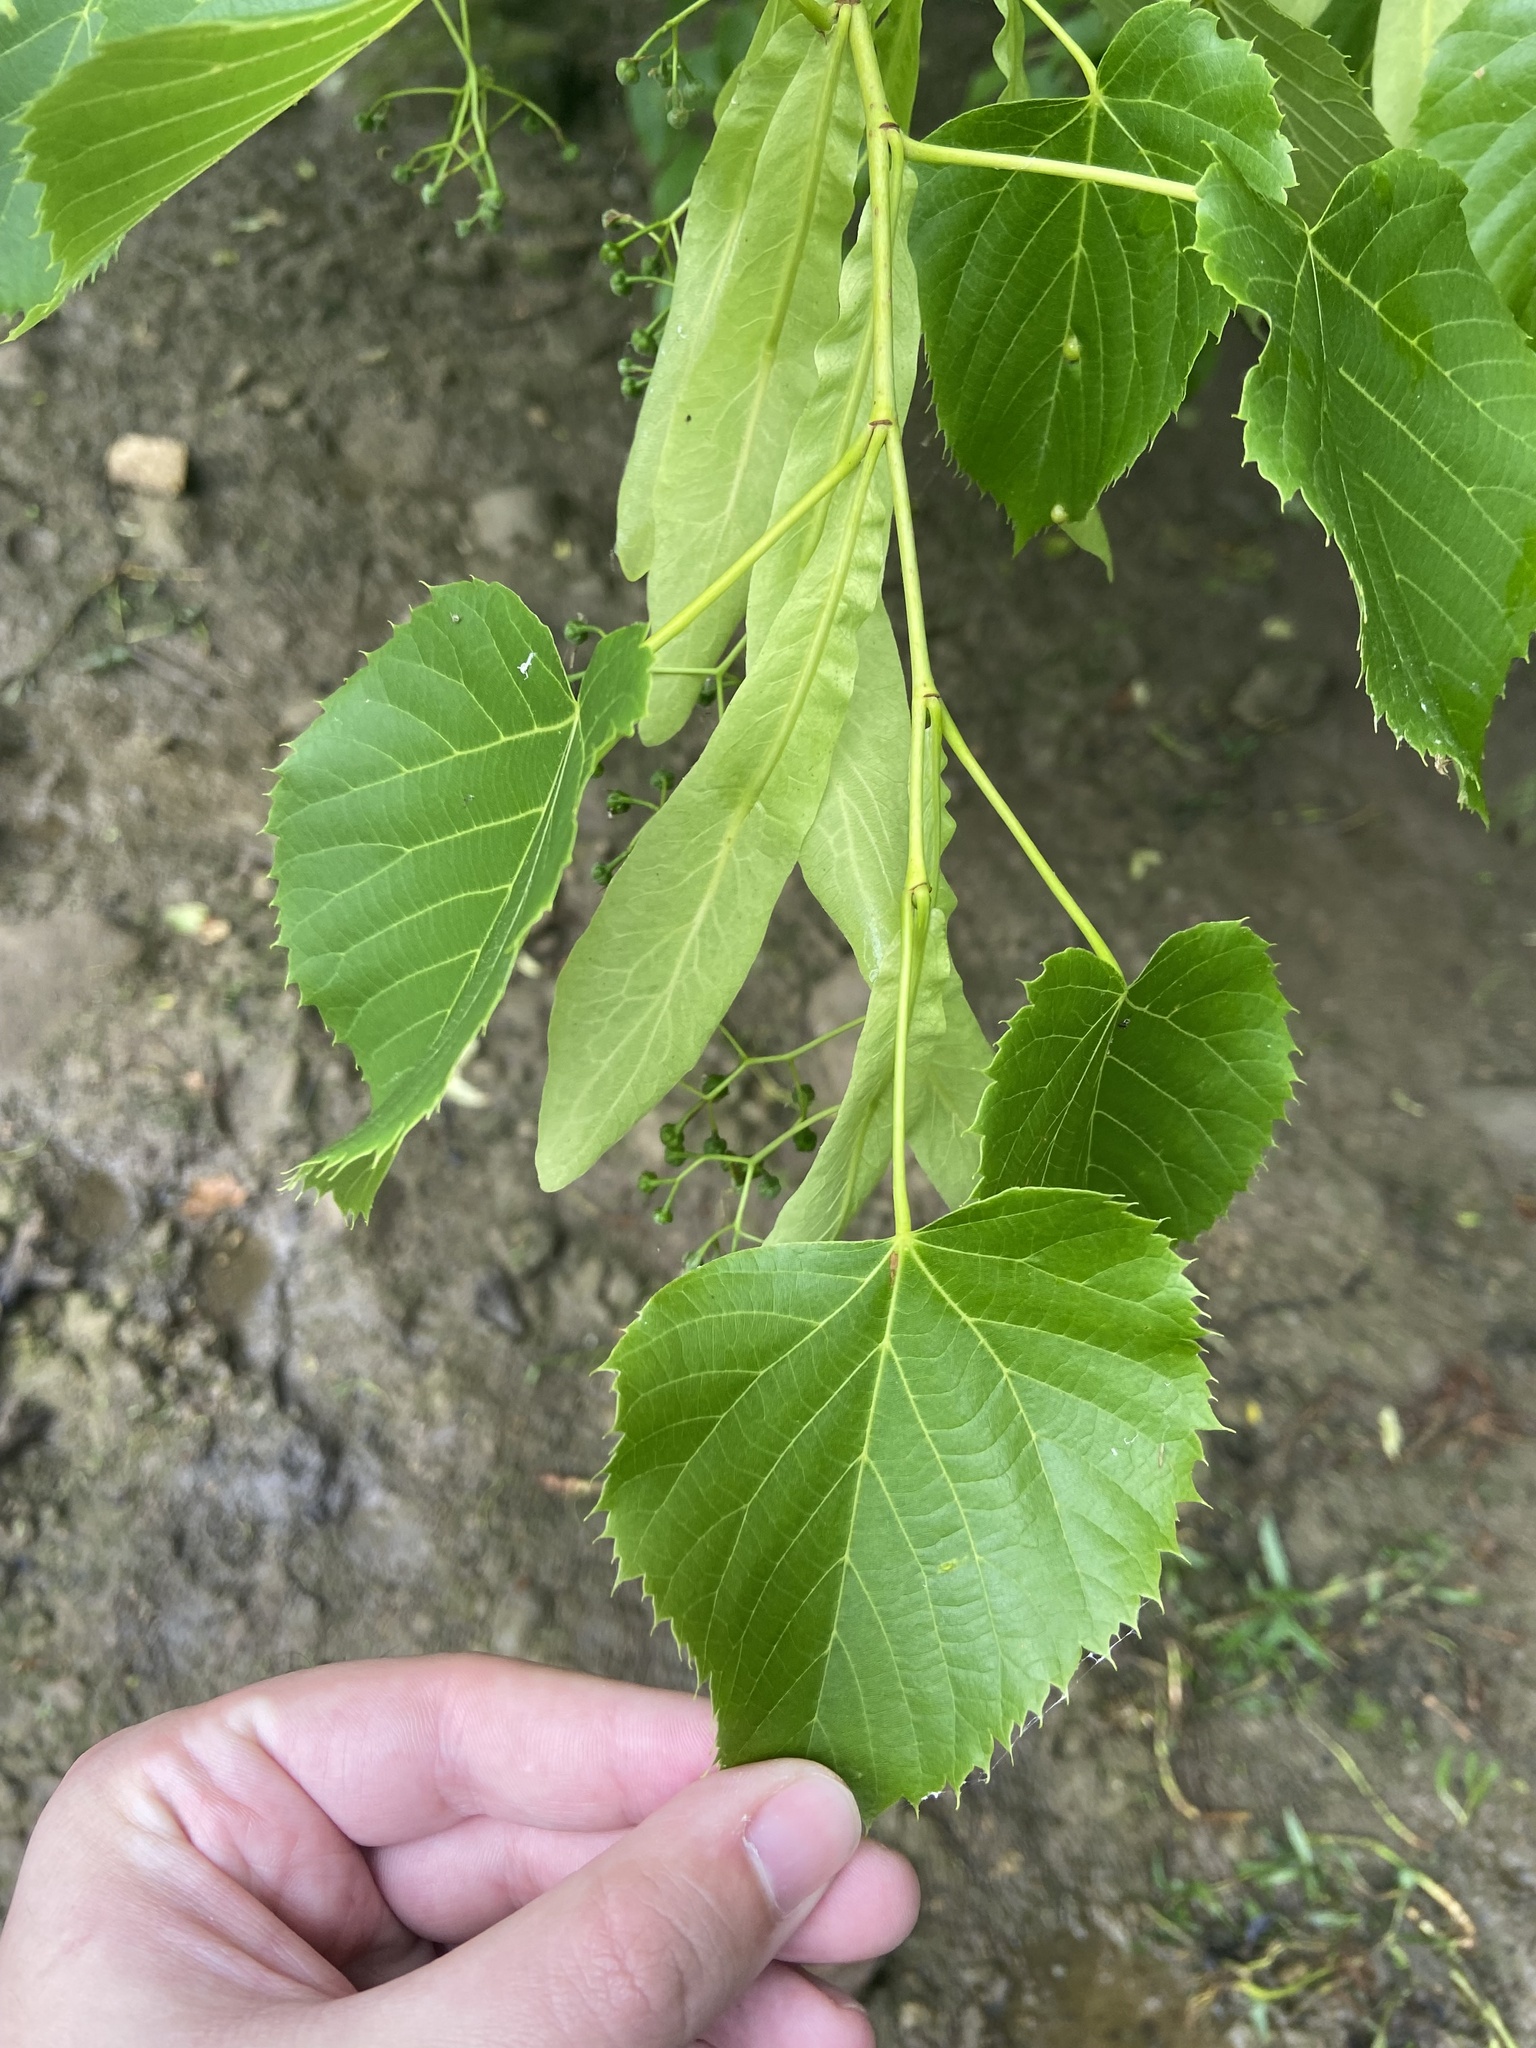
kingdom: Plantae
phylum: Tracheophyta
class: Magnoliopsida
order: Malvales
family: Malvaceae
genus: Tilia
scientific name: Tilia americana
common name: Basswood
